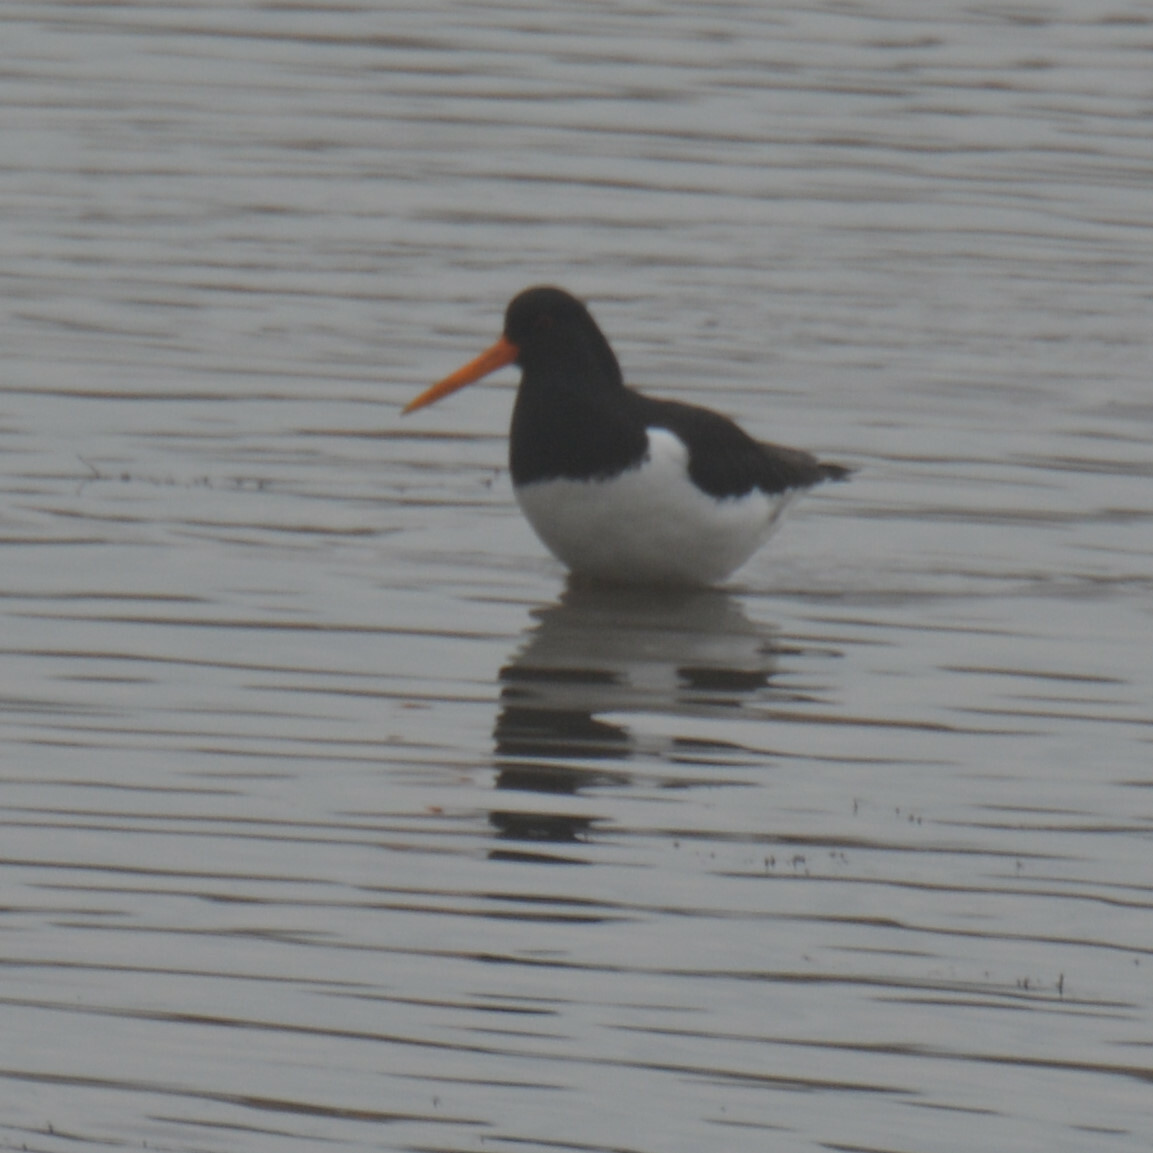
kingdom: Animalia
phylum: Chordata
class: Aves
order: Charadriiformes
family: Haematopodidae
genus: Haematopus
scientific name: Haematopus ostralegus
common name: Eurasian oystercatcher
